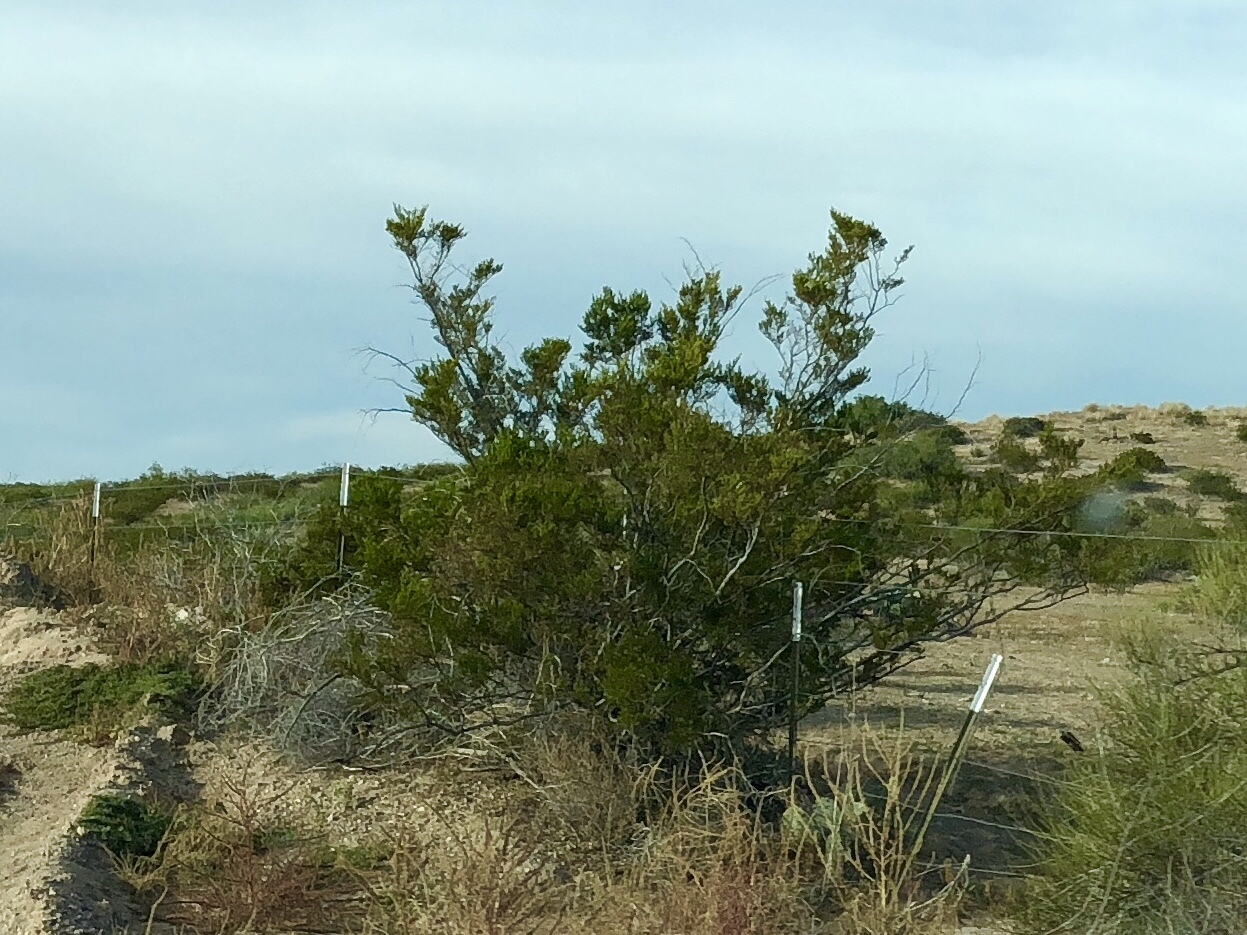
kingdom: Plantae
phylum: Tracheophyta
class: Magnoliopsida
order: Zygophyllales
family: Zygophyllaceae
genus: Larrea
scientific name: Larrea tridentata
